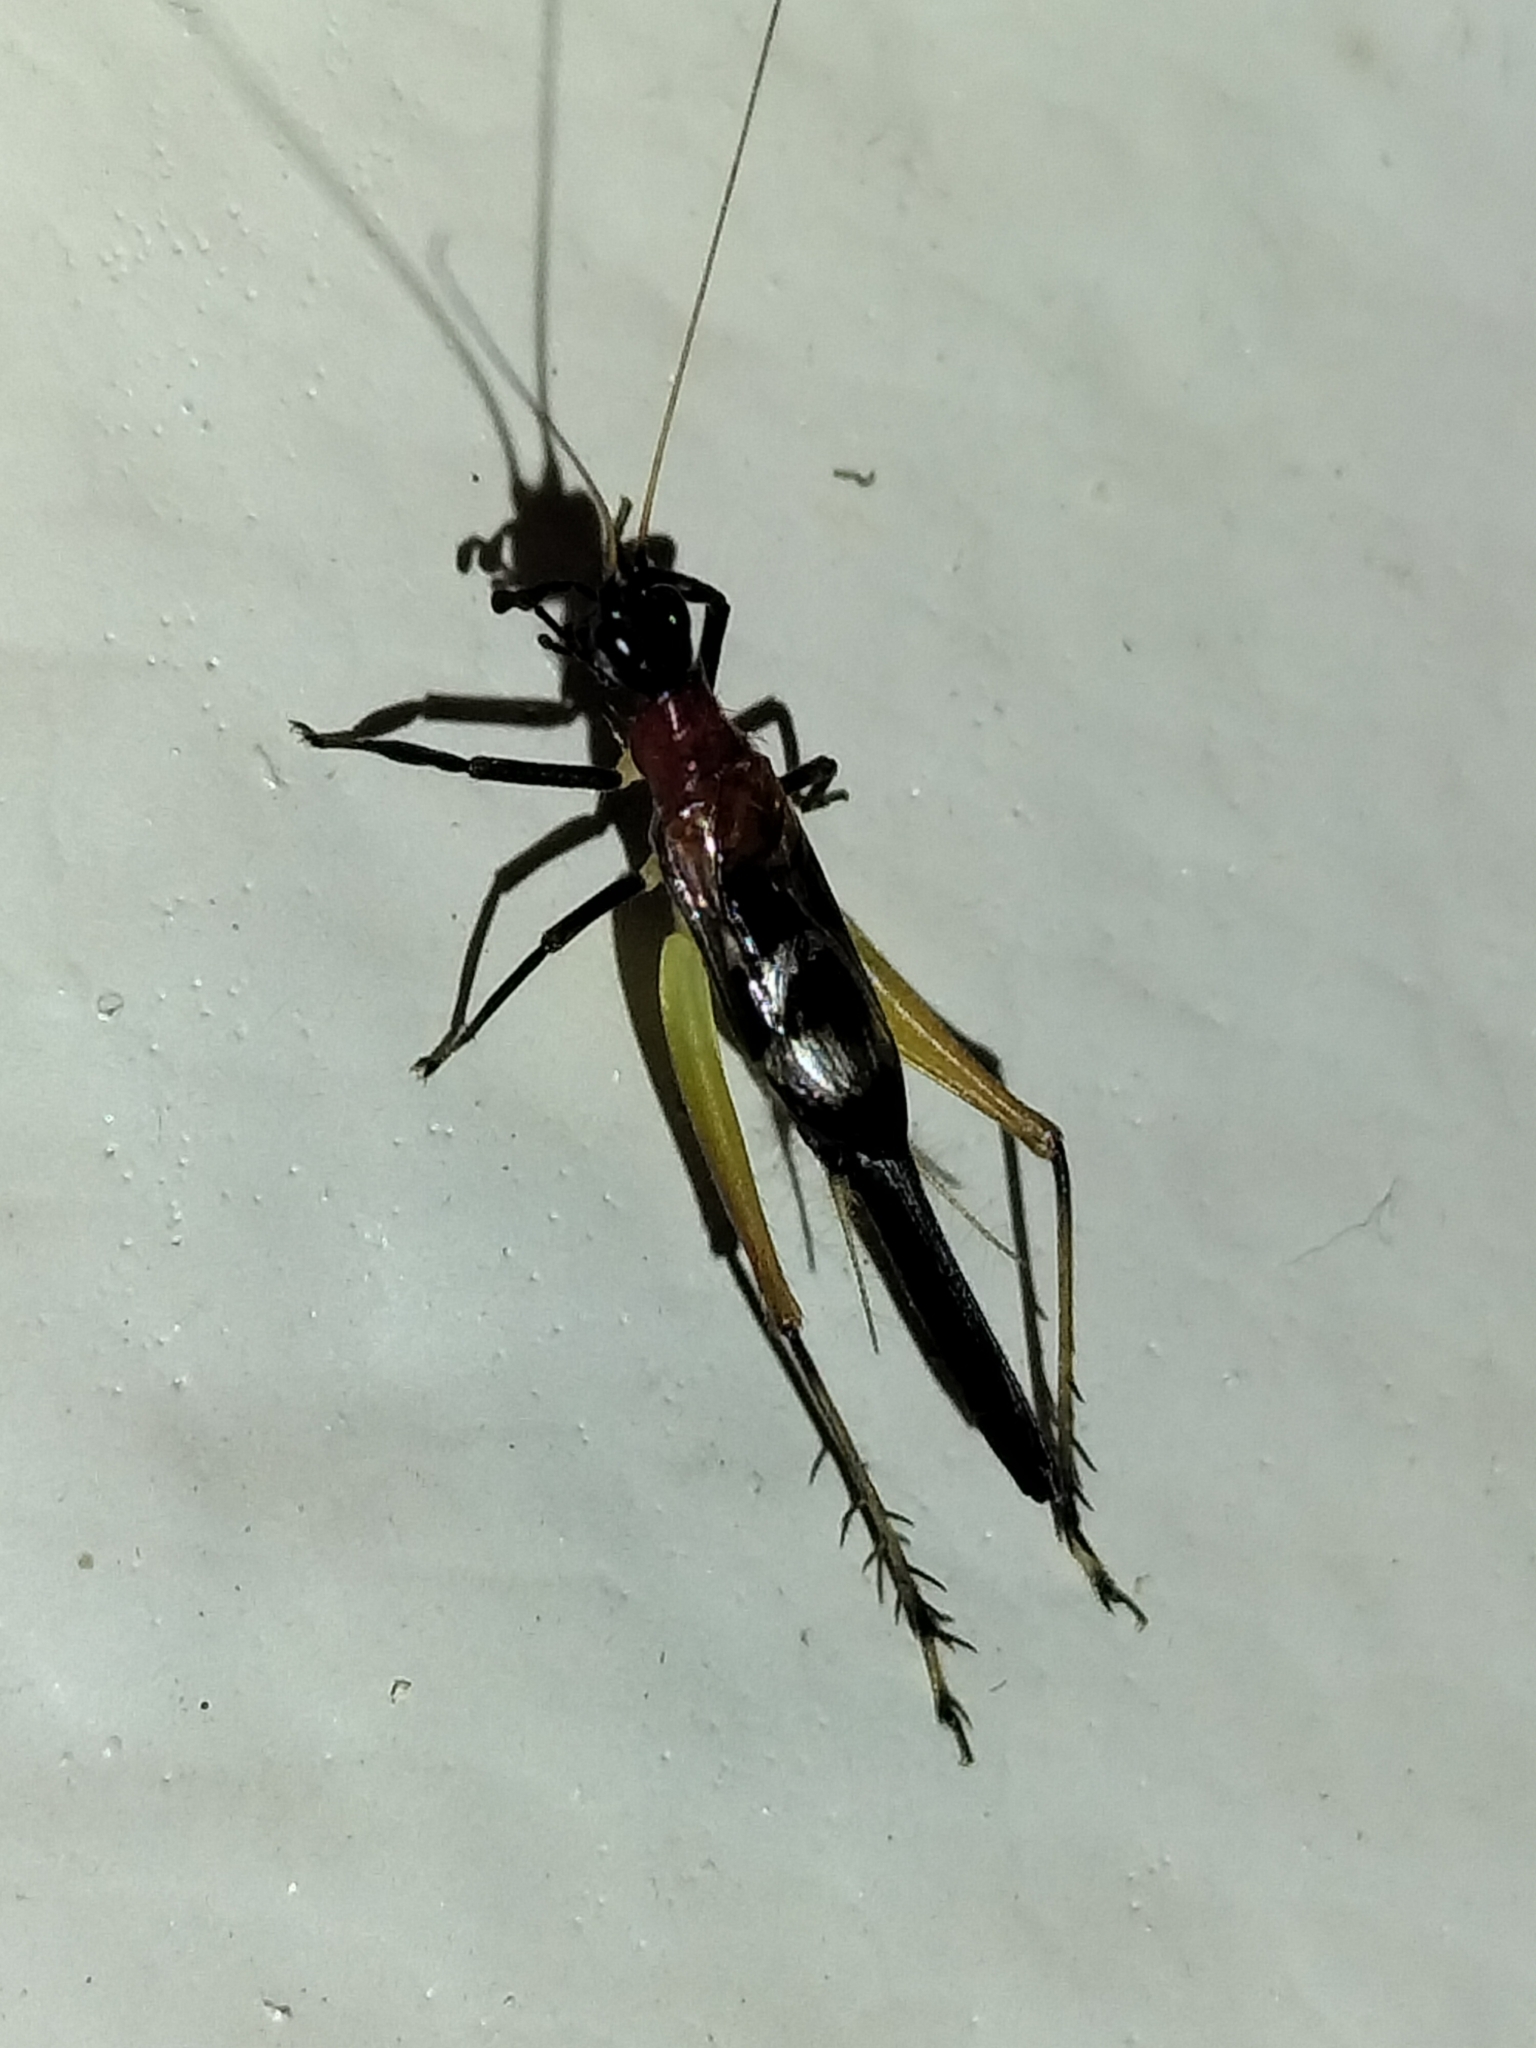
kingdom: Animalia
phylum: Arthropoda
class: Insecta
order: Orthoptera
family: Trigonidiidae
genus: Homoeoxipha
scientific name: Homoeoxipha lycoides
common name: Tinkling leaf-runner
